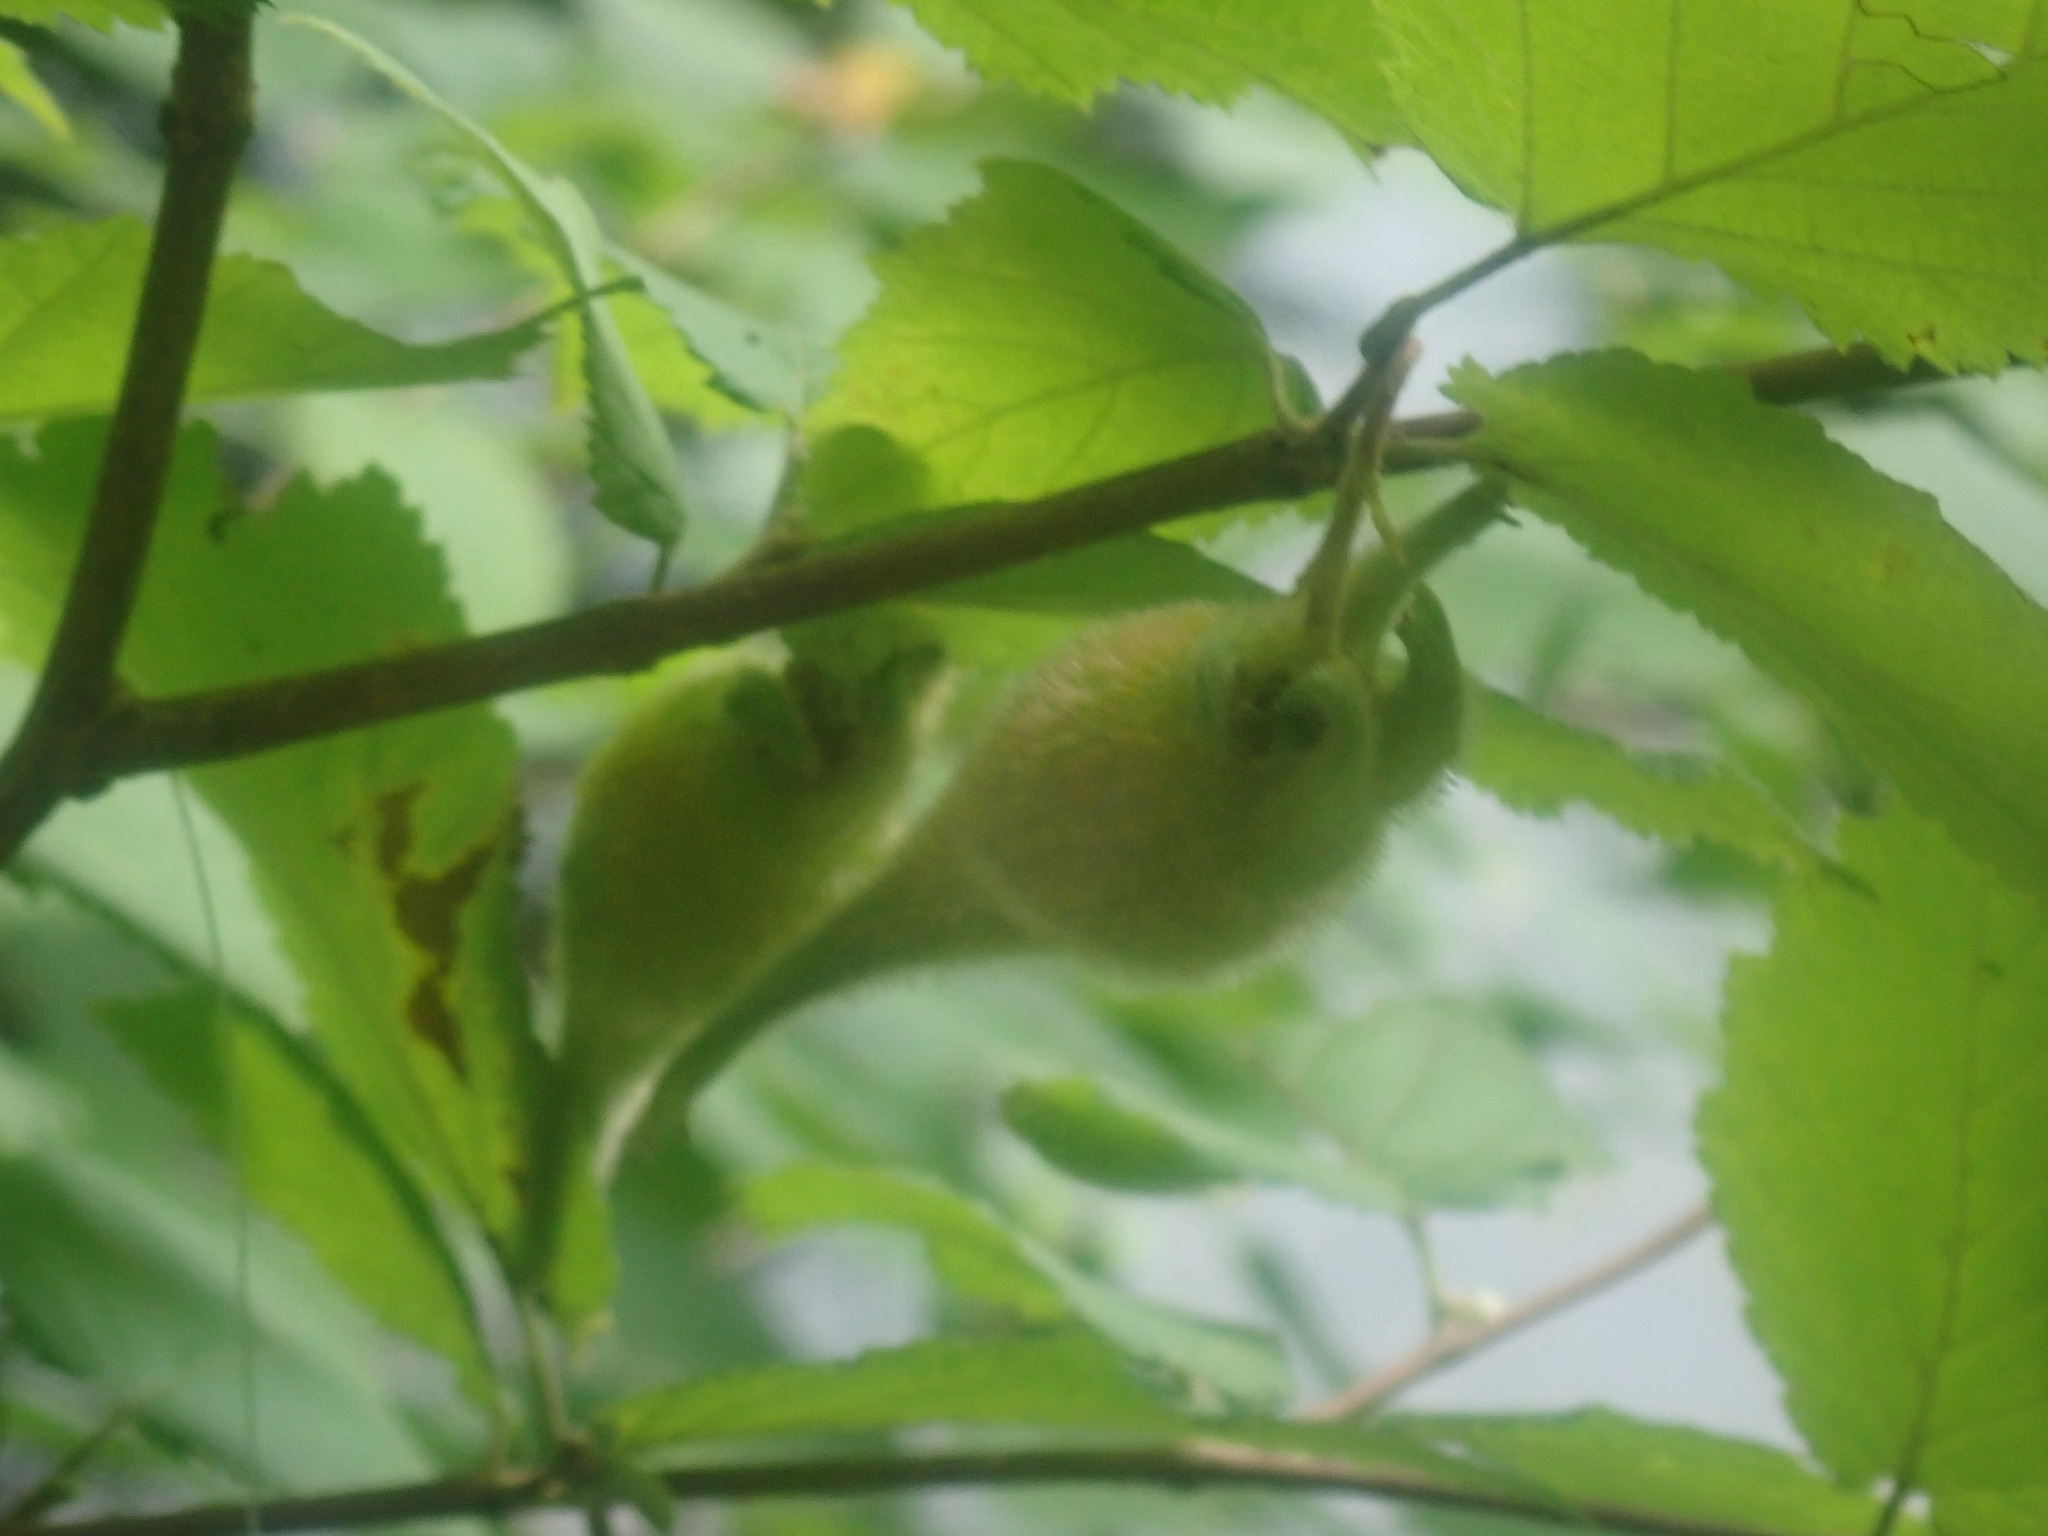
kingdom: Plantae
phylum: Tracheophyta
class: Magnoliopsida
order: Fagales
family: Betulaceae
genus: Corylus
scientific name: Corylus cornuta
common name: Beaked hazel
